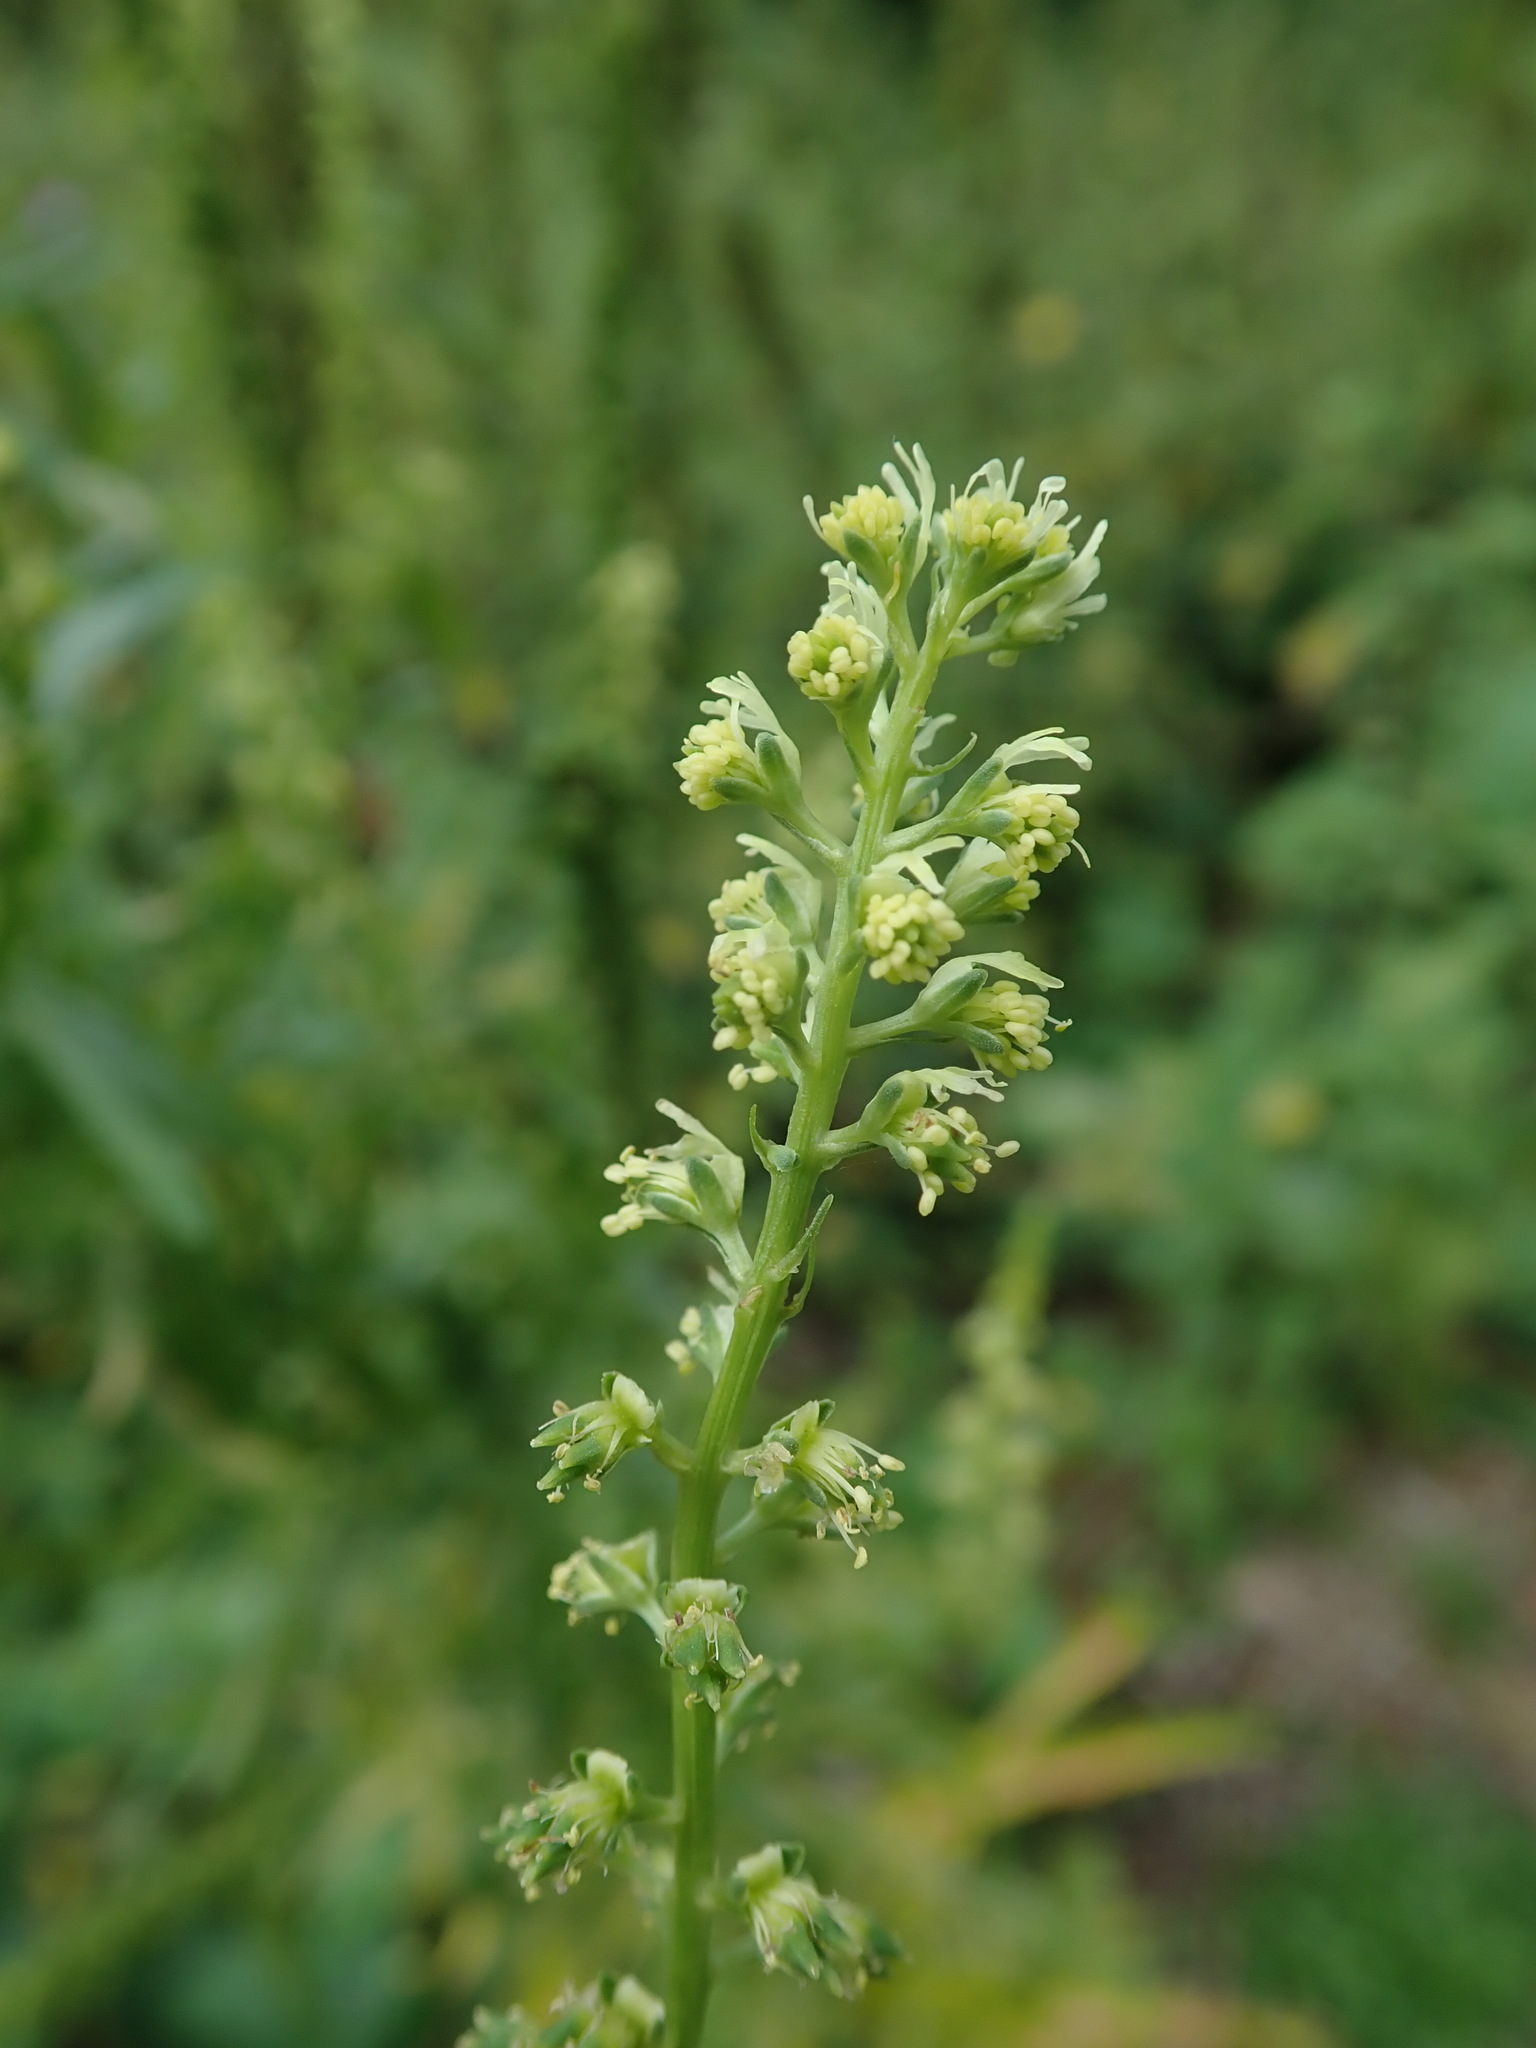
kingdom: Plantae
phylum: Tracheophyta
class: Magnoliopsida
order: Brassicales
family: Resedaceae
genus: Reseda
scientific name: Reseda luteola
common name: Weld
